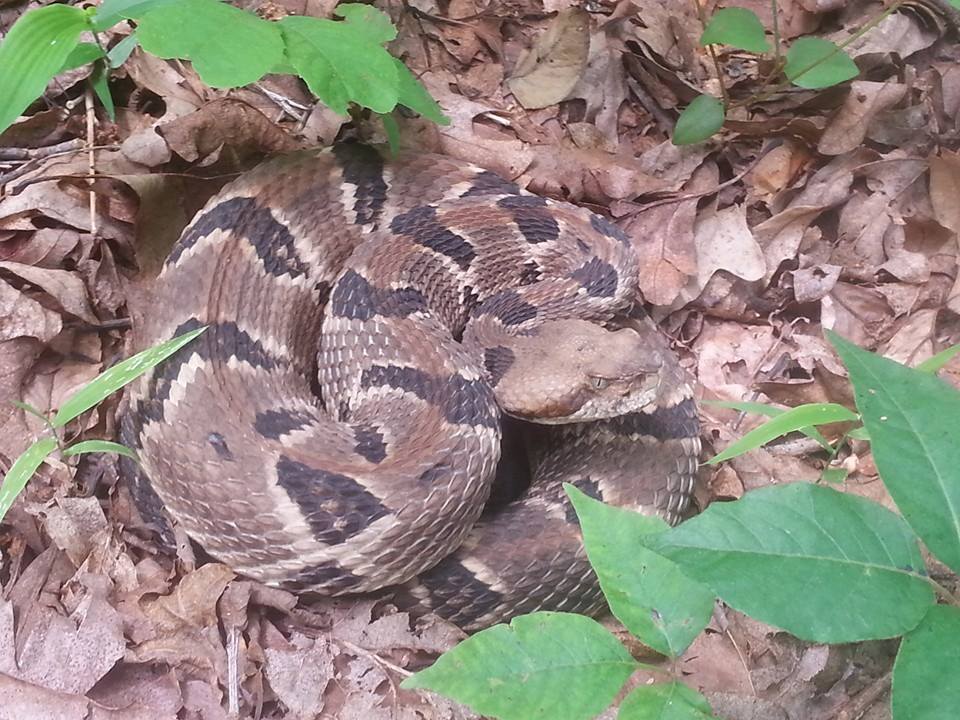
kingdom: Animalia
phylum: Chordata
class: Squamata
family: Viperidae
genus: Crotalus
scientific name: Crotalus horridus
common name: Timber rattlesnake
